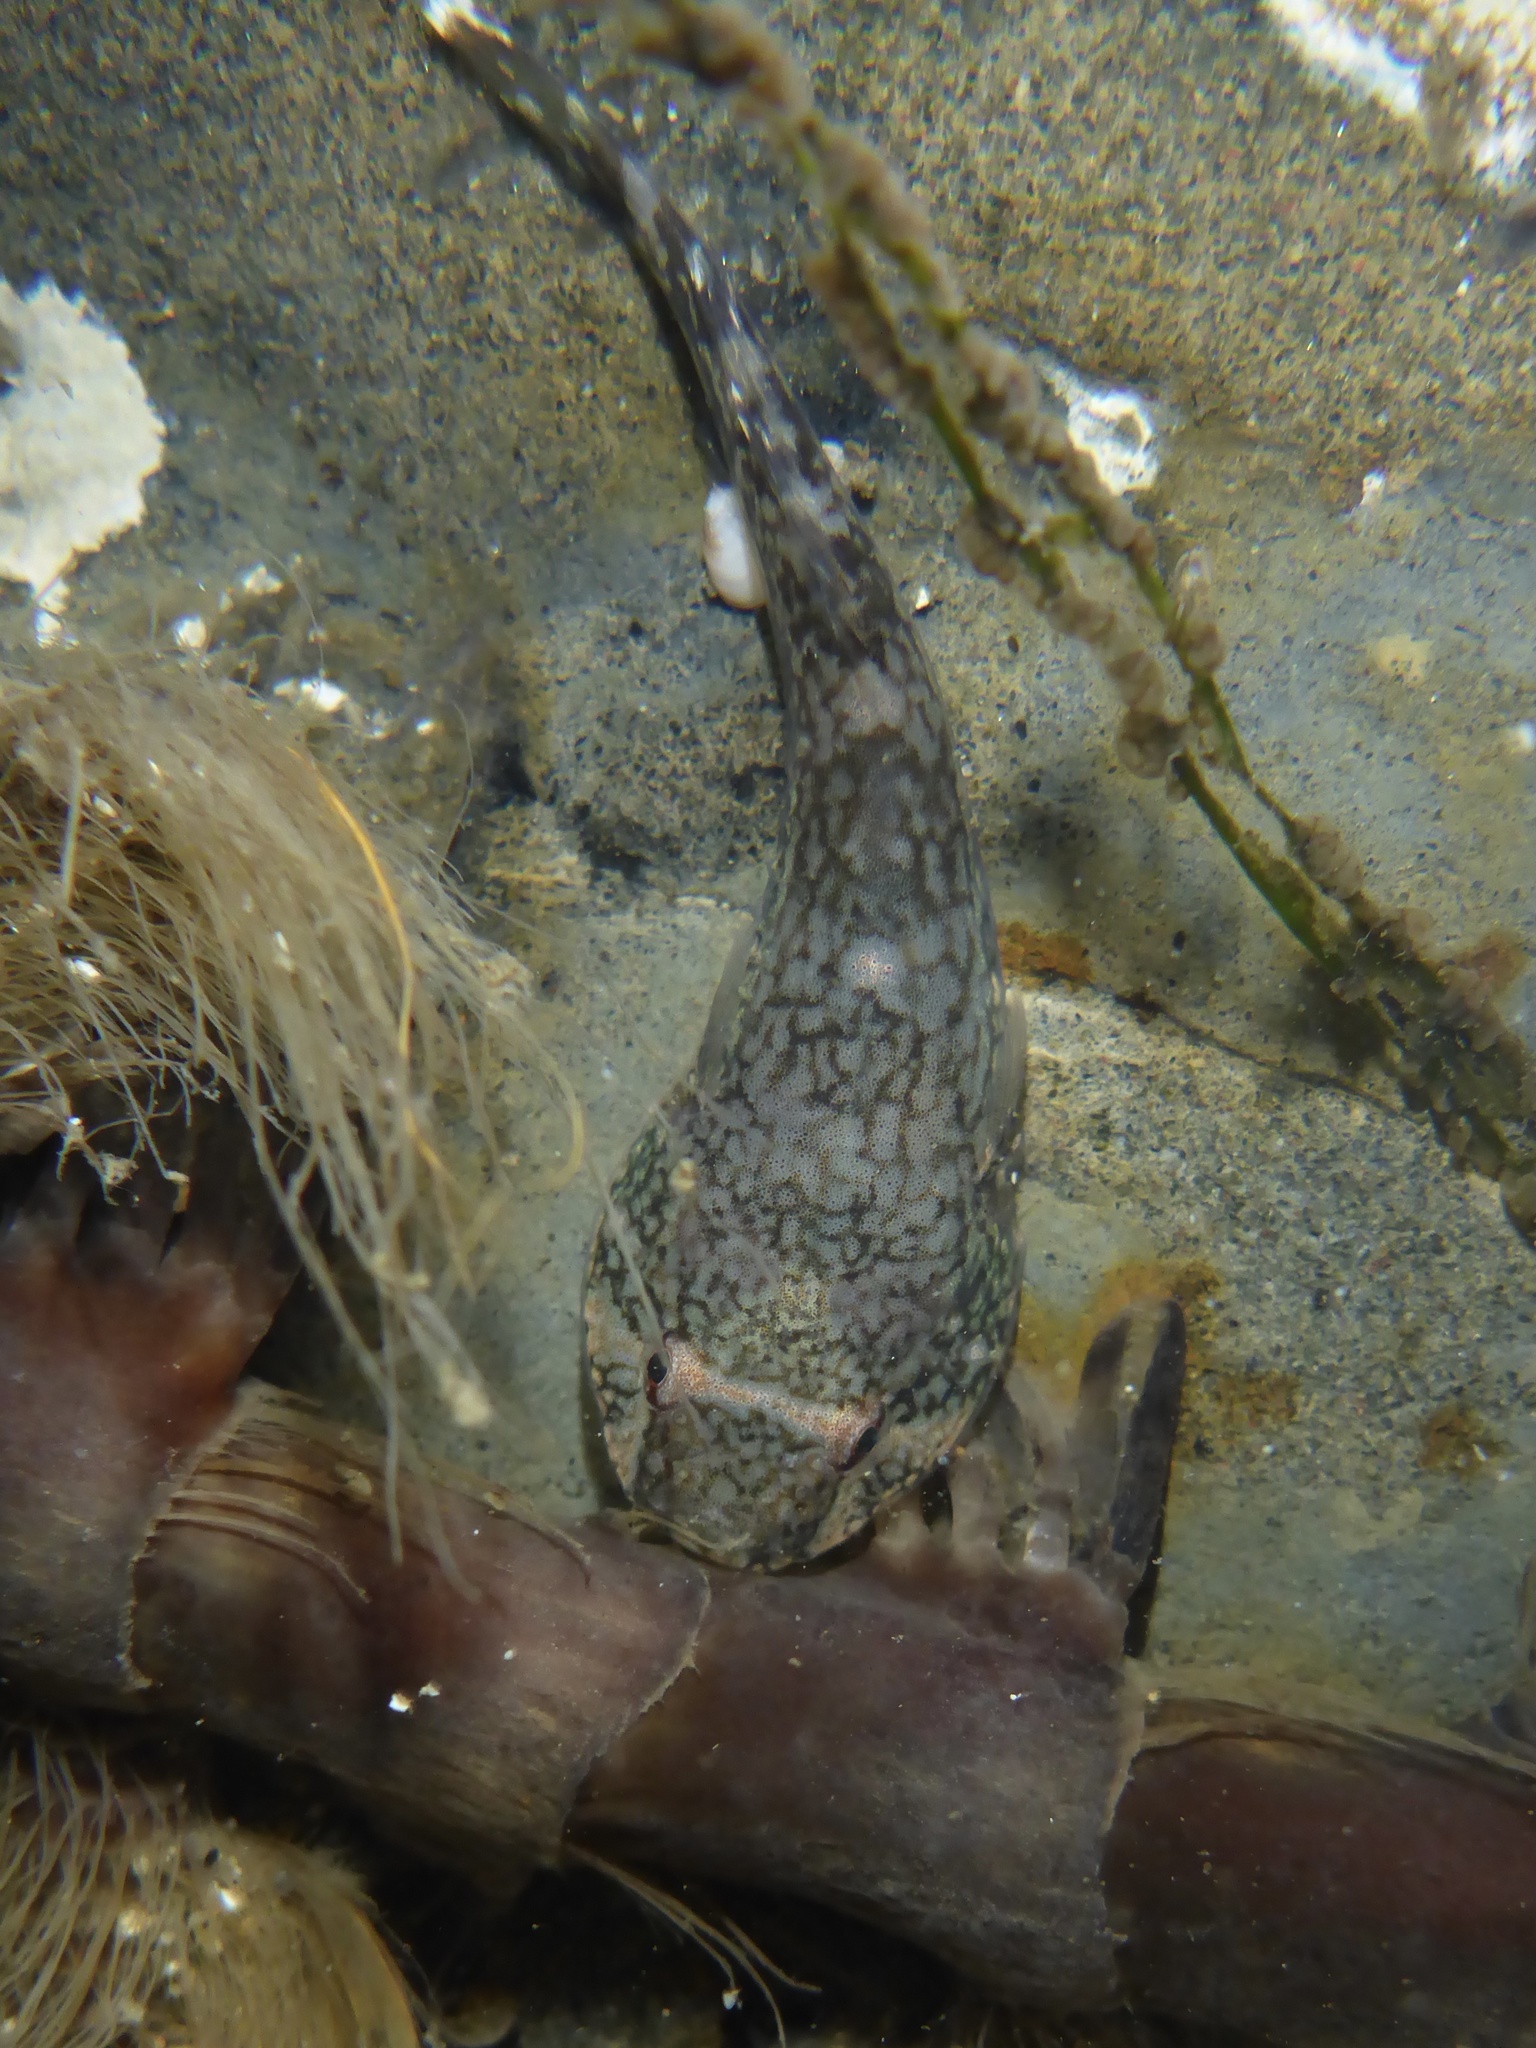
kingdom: Animalia
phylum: Chordata
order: Gobiesociformes
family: Gobiesocidae
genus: Gobiesox
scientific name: Gobiesox maeandricus
